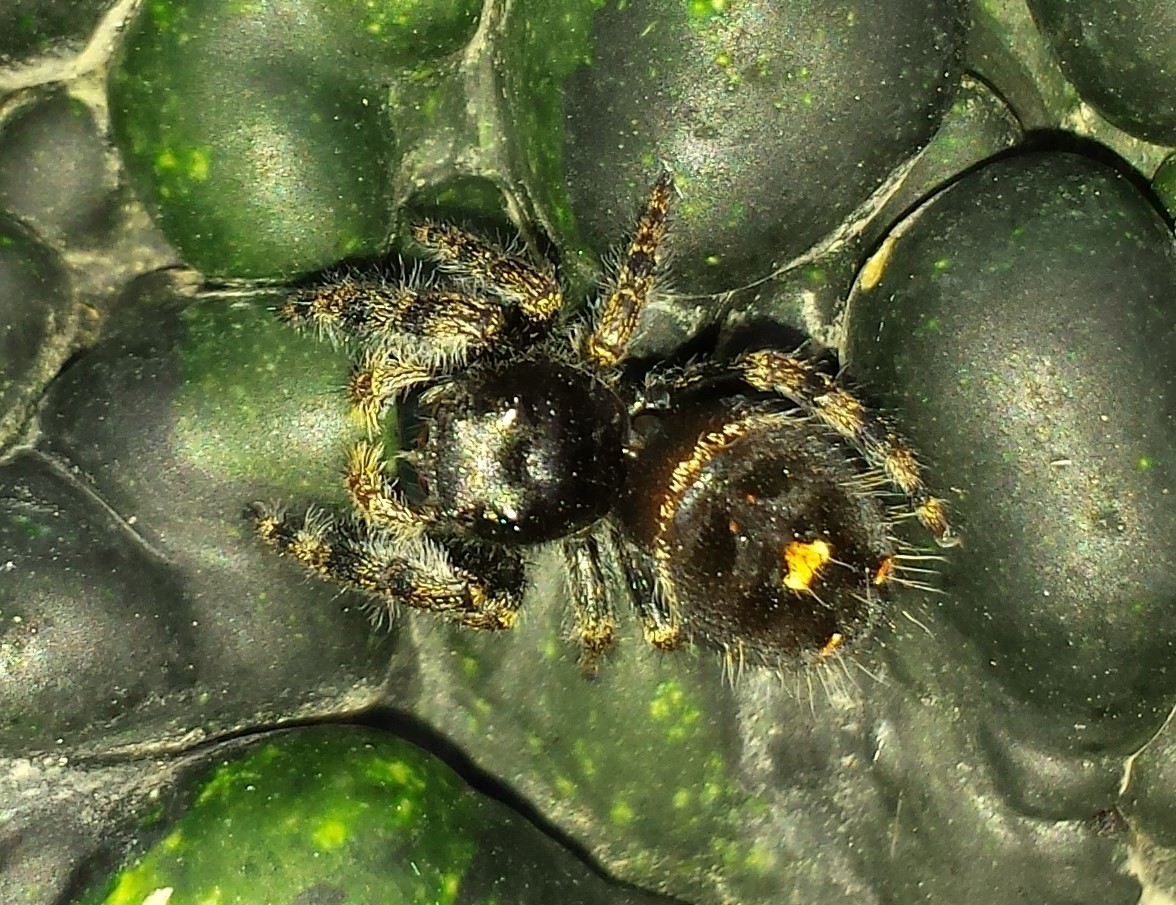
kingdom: Animalia
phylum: Arthropoda
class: Arachnida
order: Araneae
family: Salticidae
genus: Phidippus
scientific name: Phidippus audax
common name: Bold jumper
